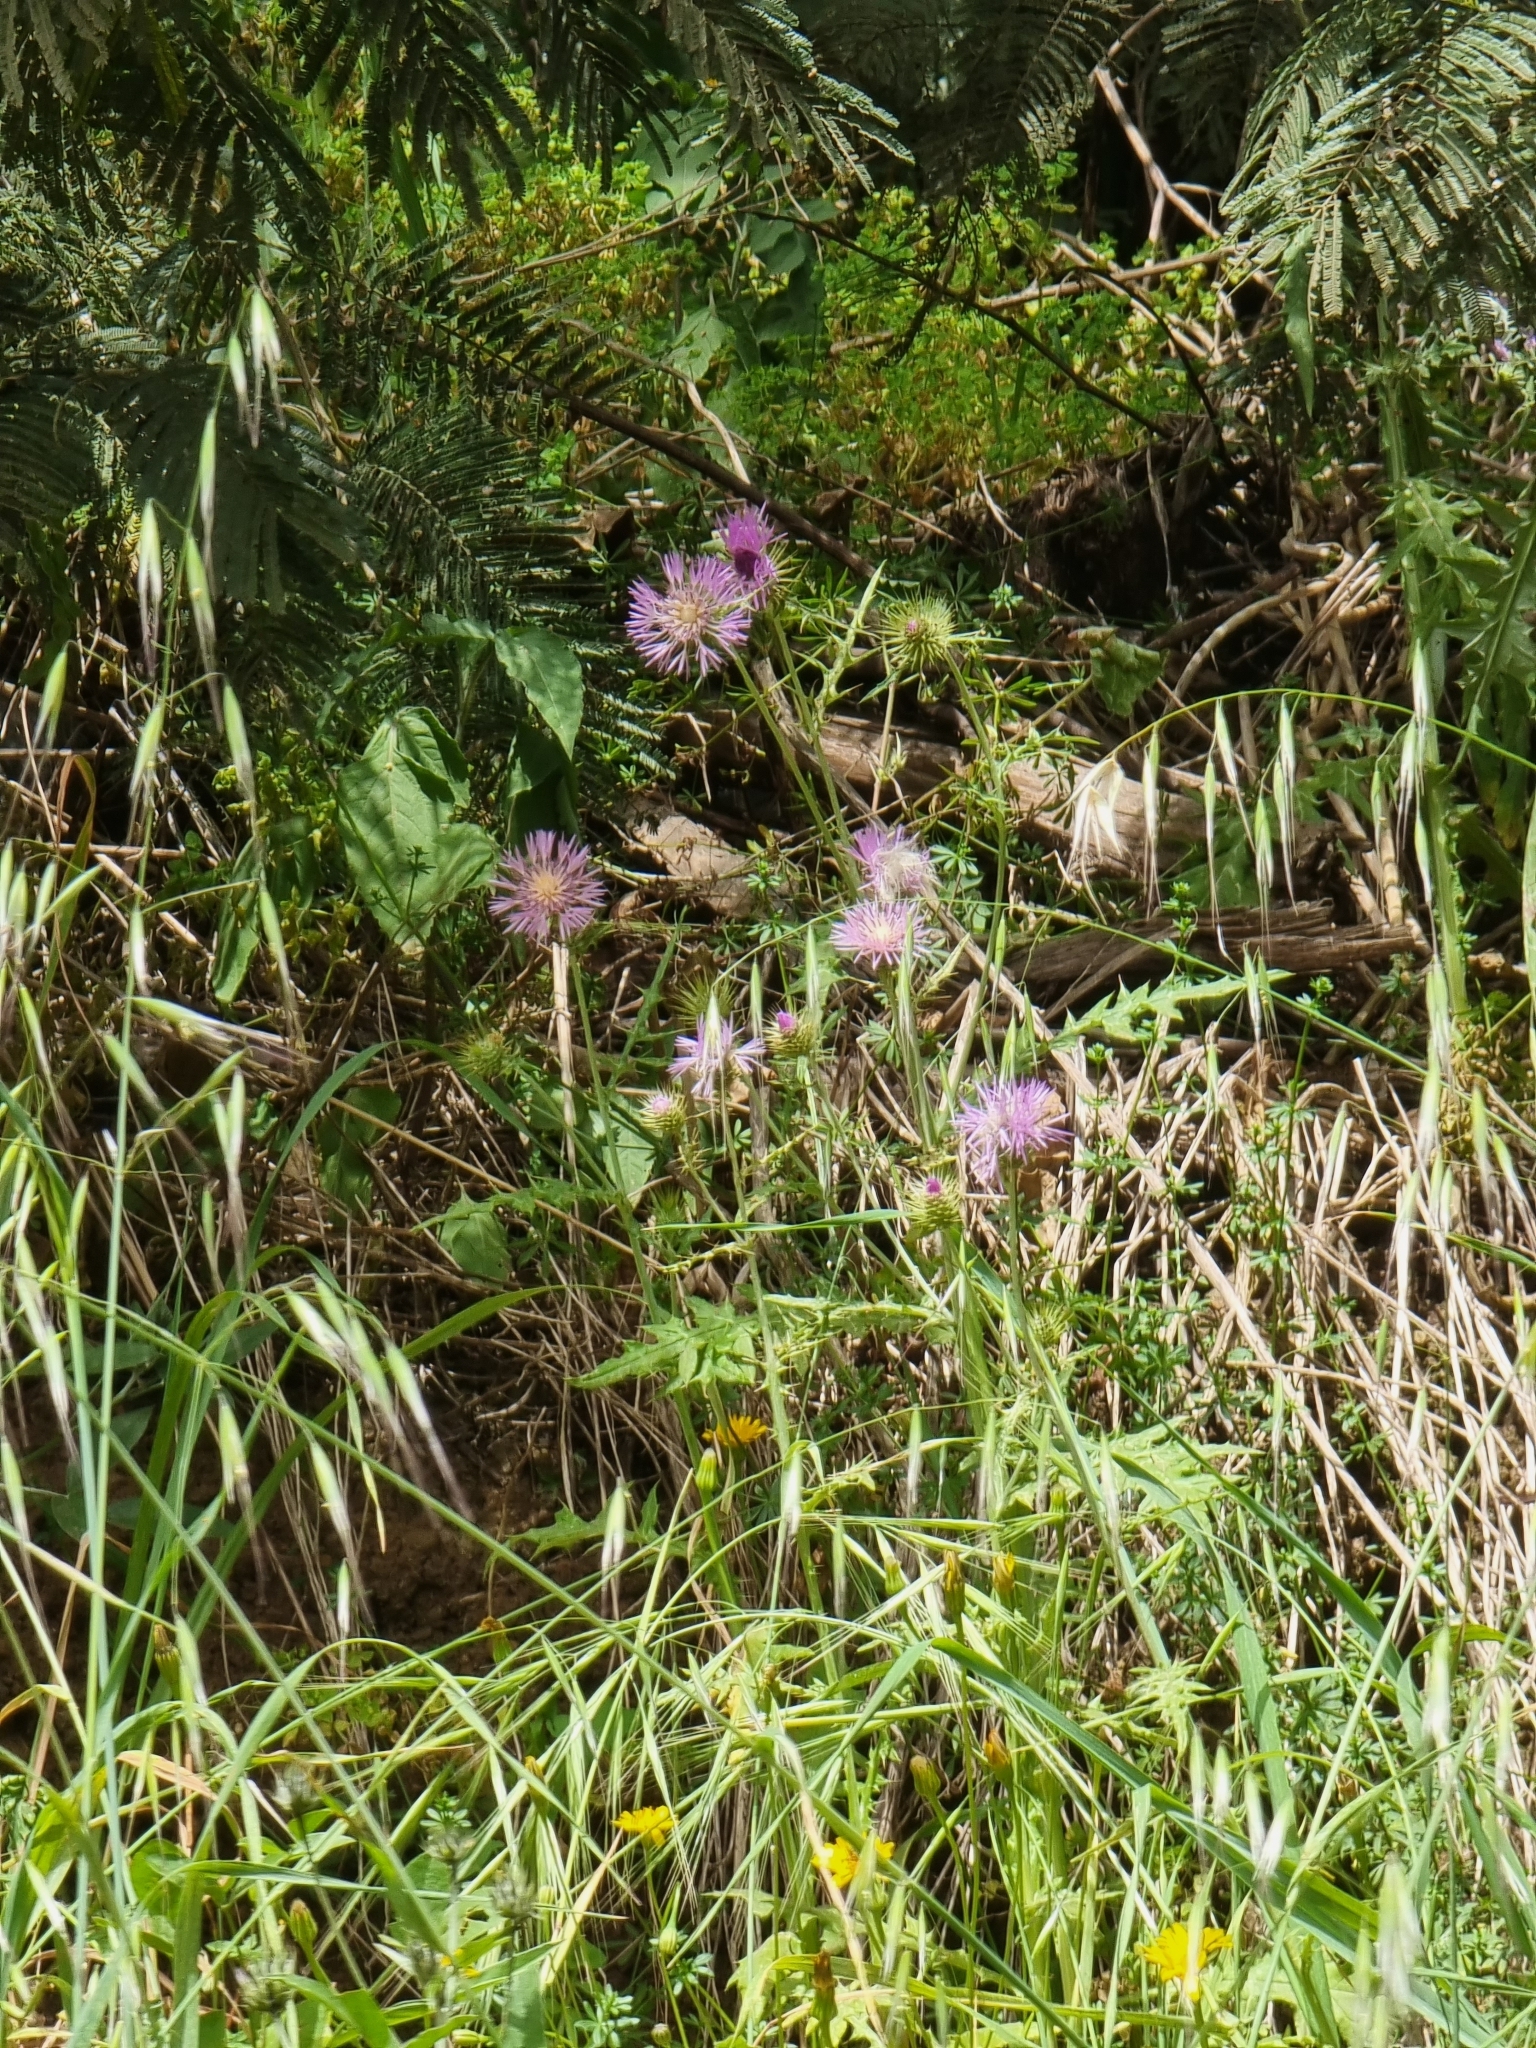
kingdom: Plantae
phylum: Tracheophyta
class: Magnoliopsida
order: Asterales
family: Asteraceae
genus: Galactites
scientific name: Galactites tomentosa
